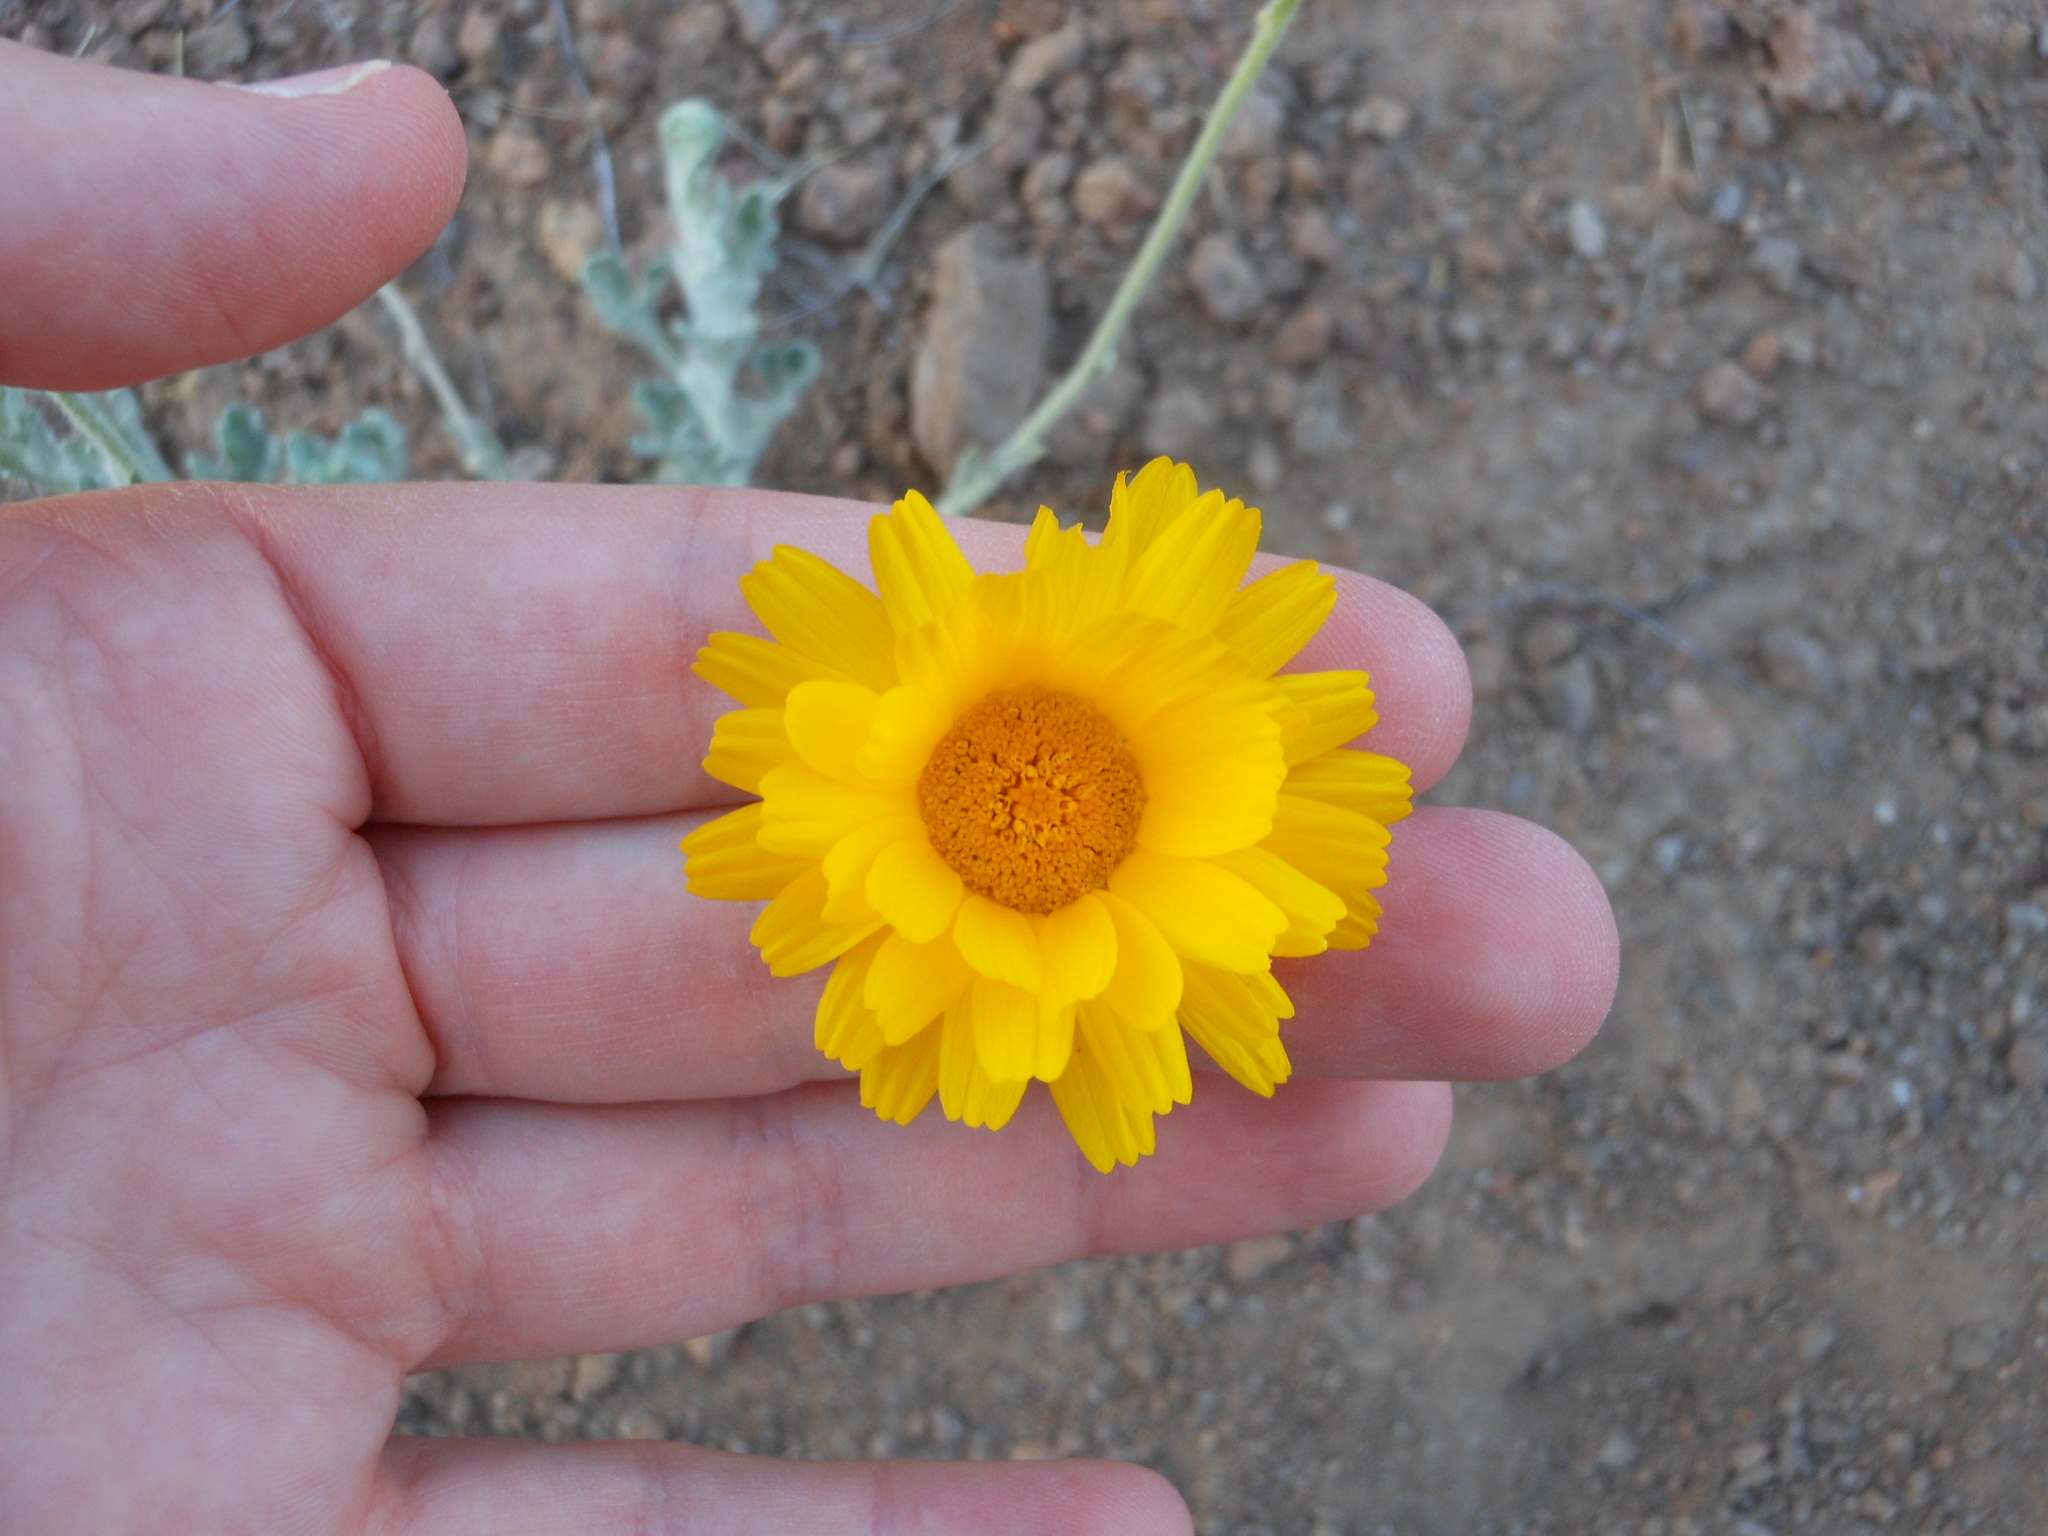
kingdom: Plantae
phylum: Tracheophyta
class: Magnoliopsida
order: Asterales
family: Asteraceae
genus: Baileya
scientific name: Baileya multiradiata
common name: Desert-marigold
